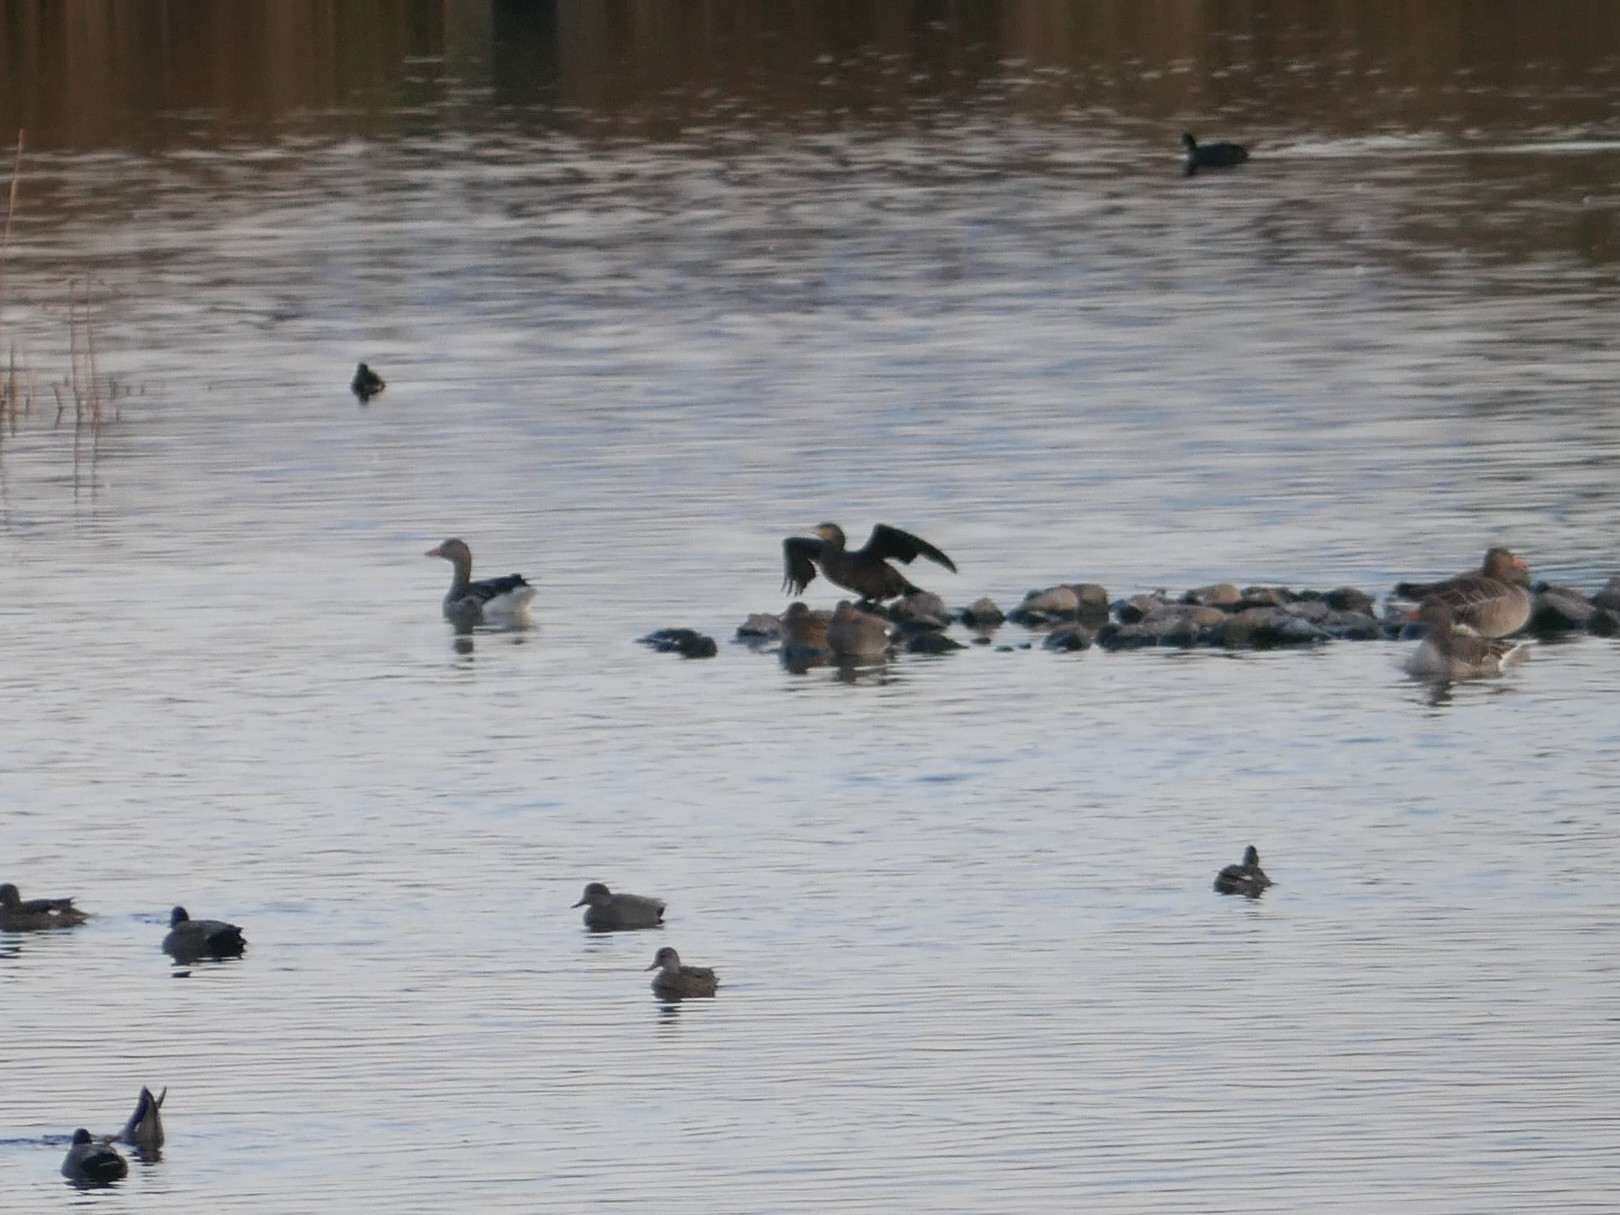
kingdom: Animalia
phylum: Chordata
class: Aves
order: Suliformes
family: Phalacrocoracidae
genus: Phalacrocorax
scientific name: Phalacrocorax carbo
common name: Great cormorant
